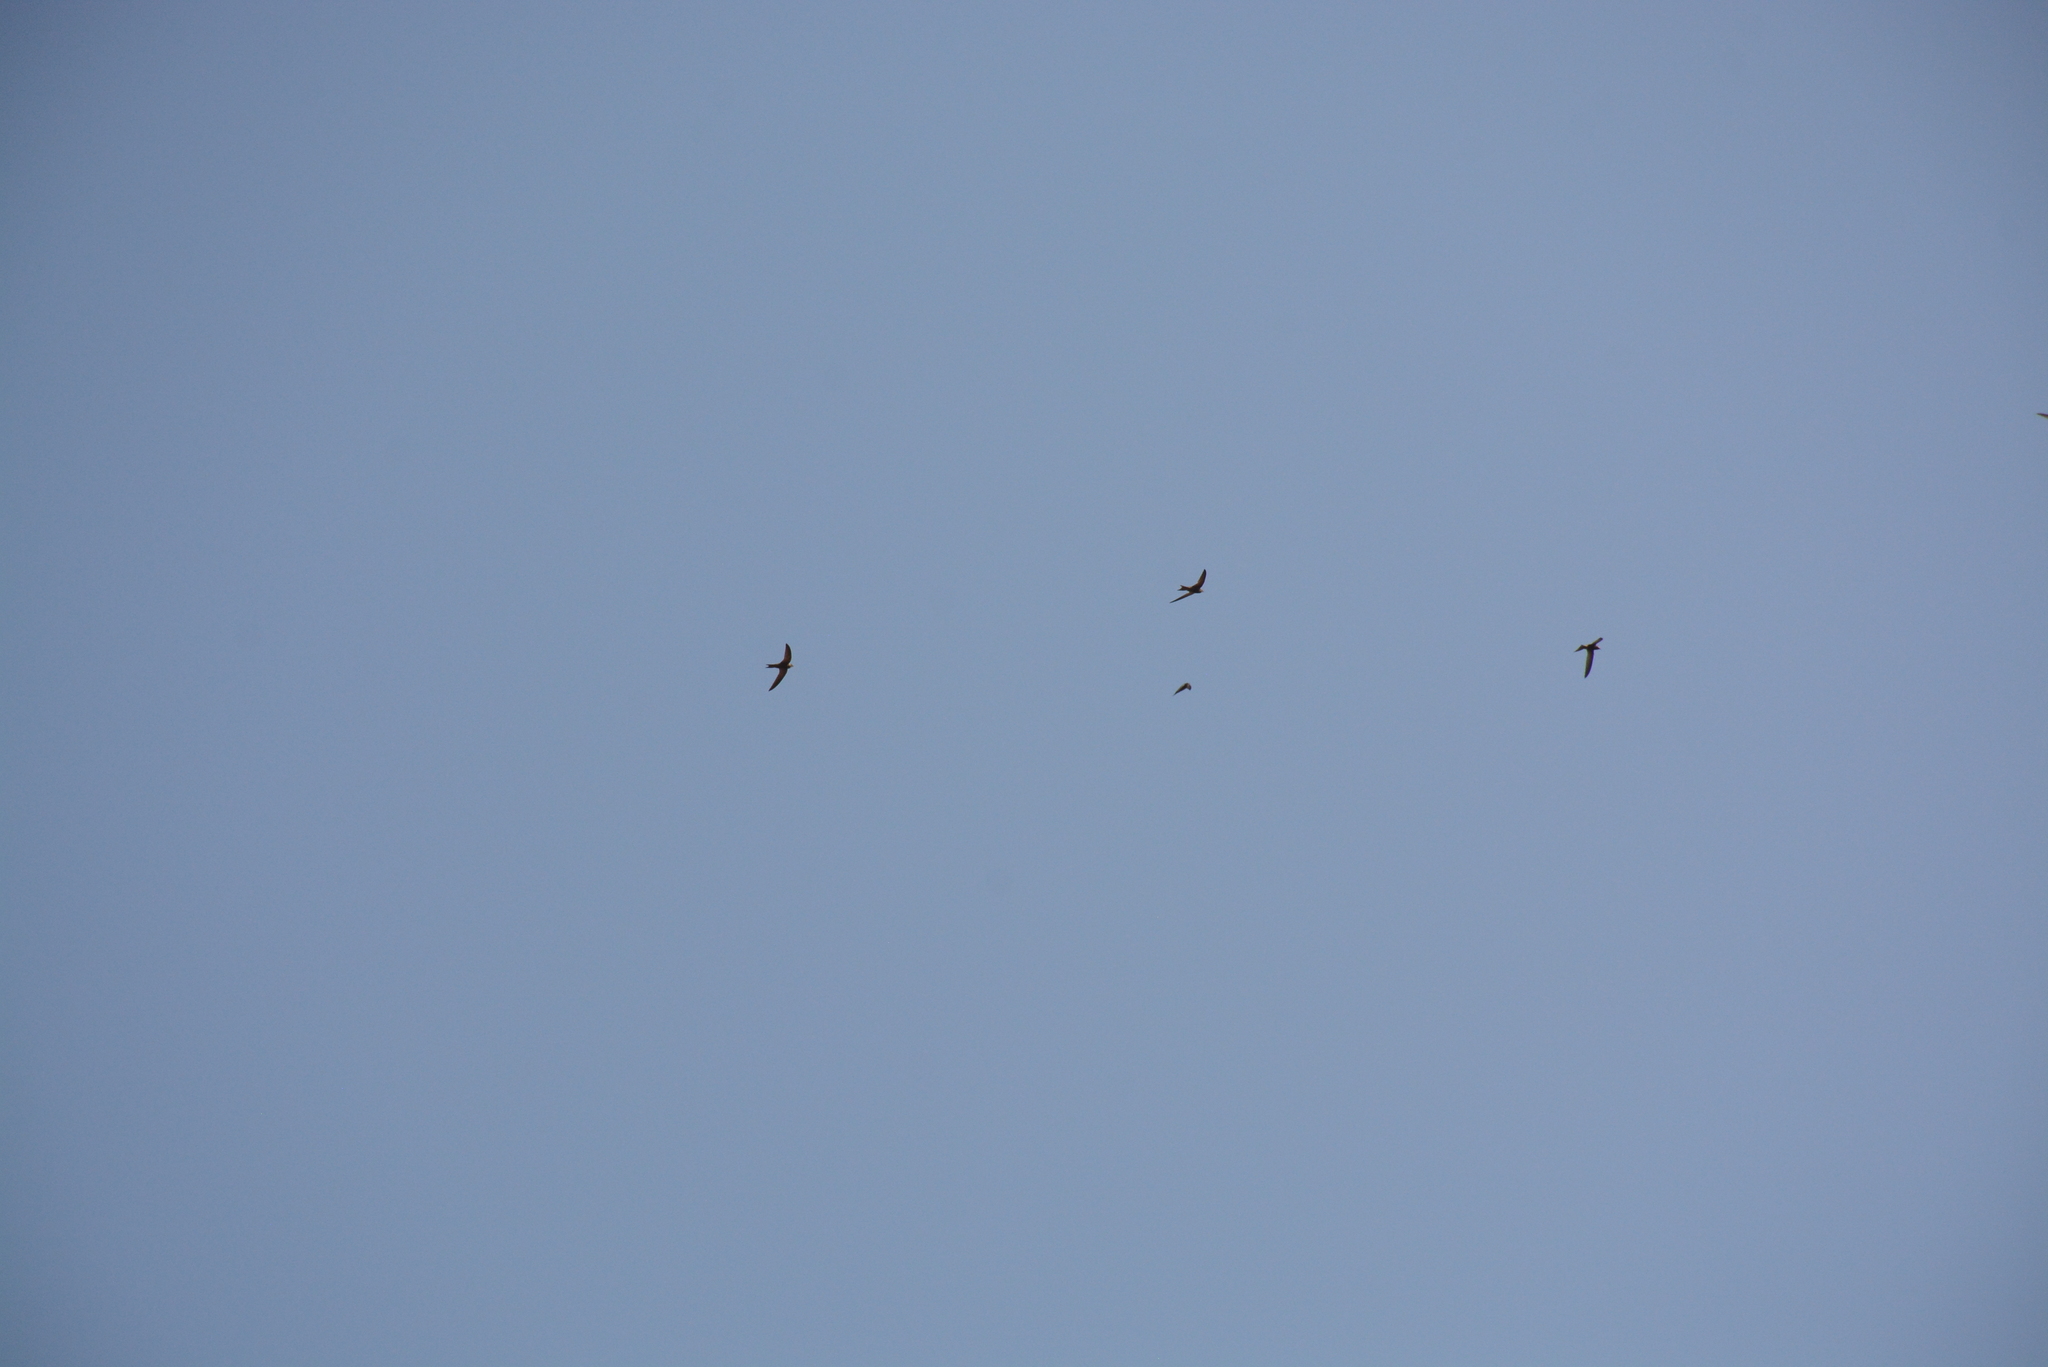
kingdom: Animalia
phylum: Chordata
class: Aves
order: Apodiformes
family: Apodidae
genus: Apus
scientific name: Apus pallidus
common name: Pallid swift
